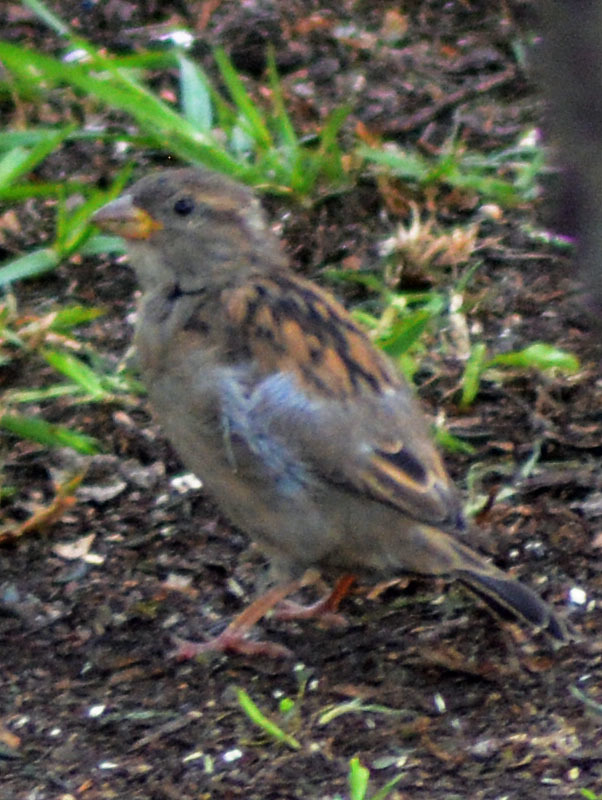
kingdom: Animalia
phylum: Chordata
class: Aves
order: Passeriformes
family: Passeridae
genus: Passer
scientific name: Passer domesticus
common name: House sparrow
